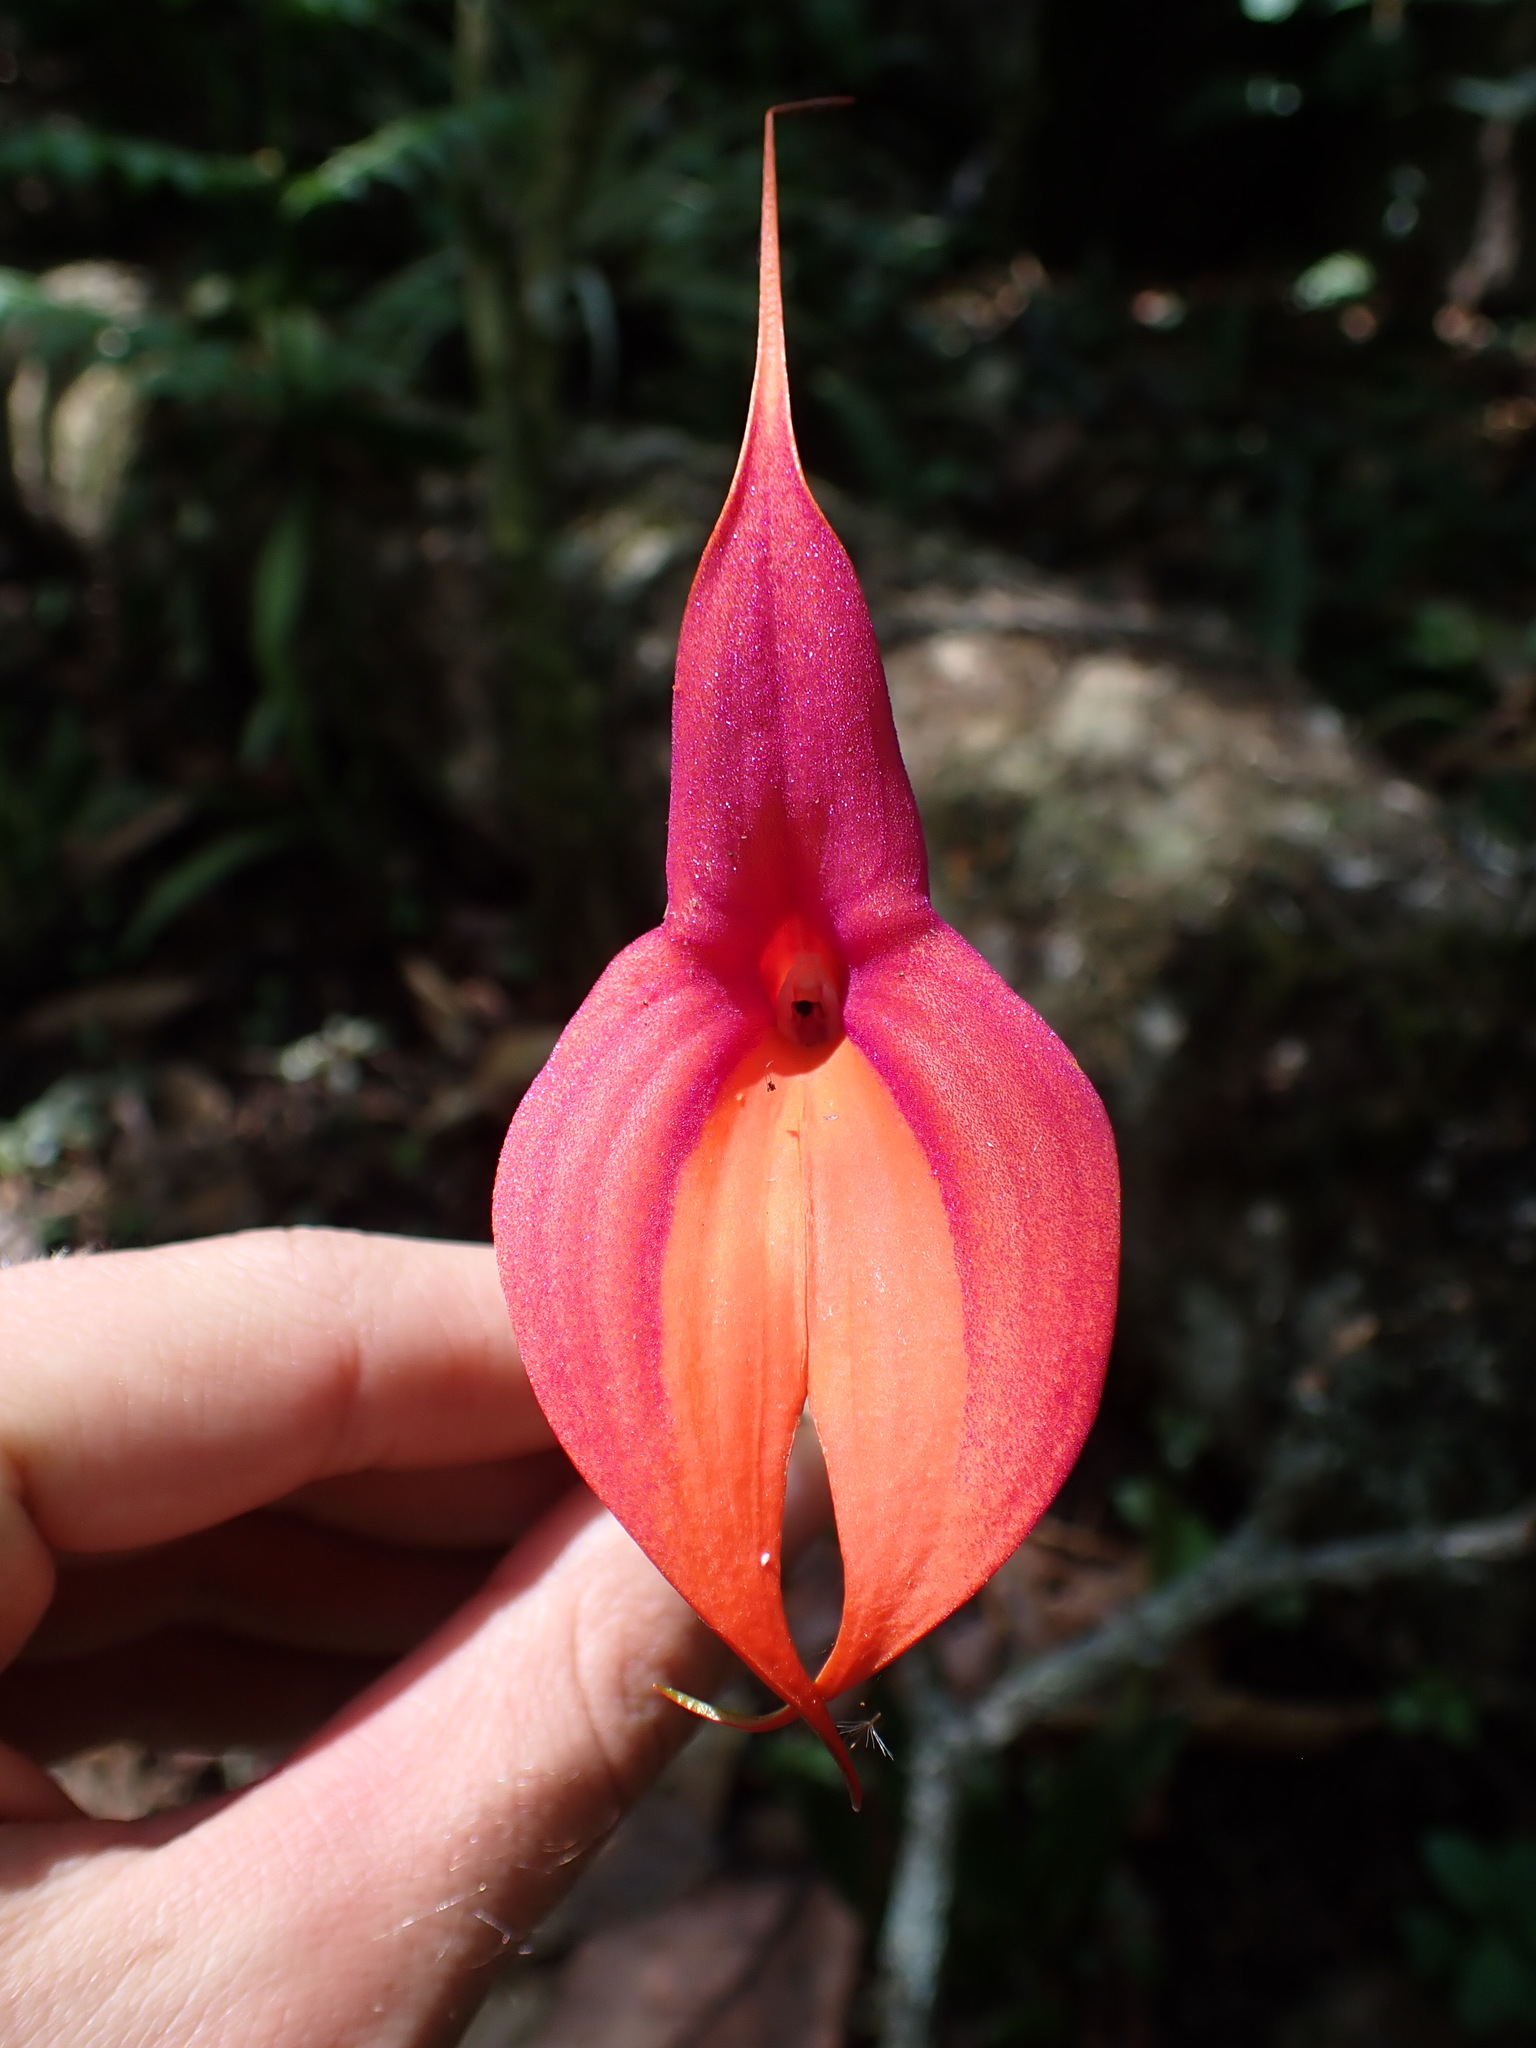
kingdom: Plantae
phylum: Tracheophyta
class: Liliopsida
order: Asparagales
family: Orchidaceae
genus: Masdevallia
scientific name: Masdevallia veitchiana
